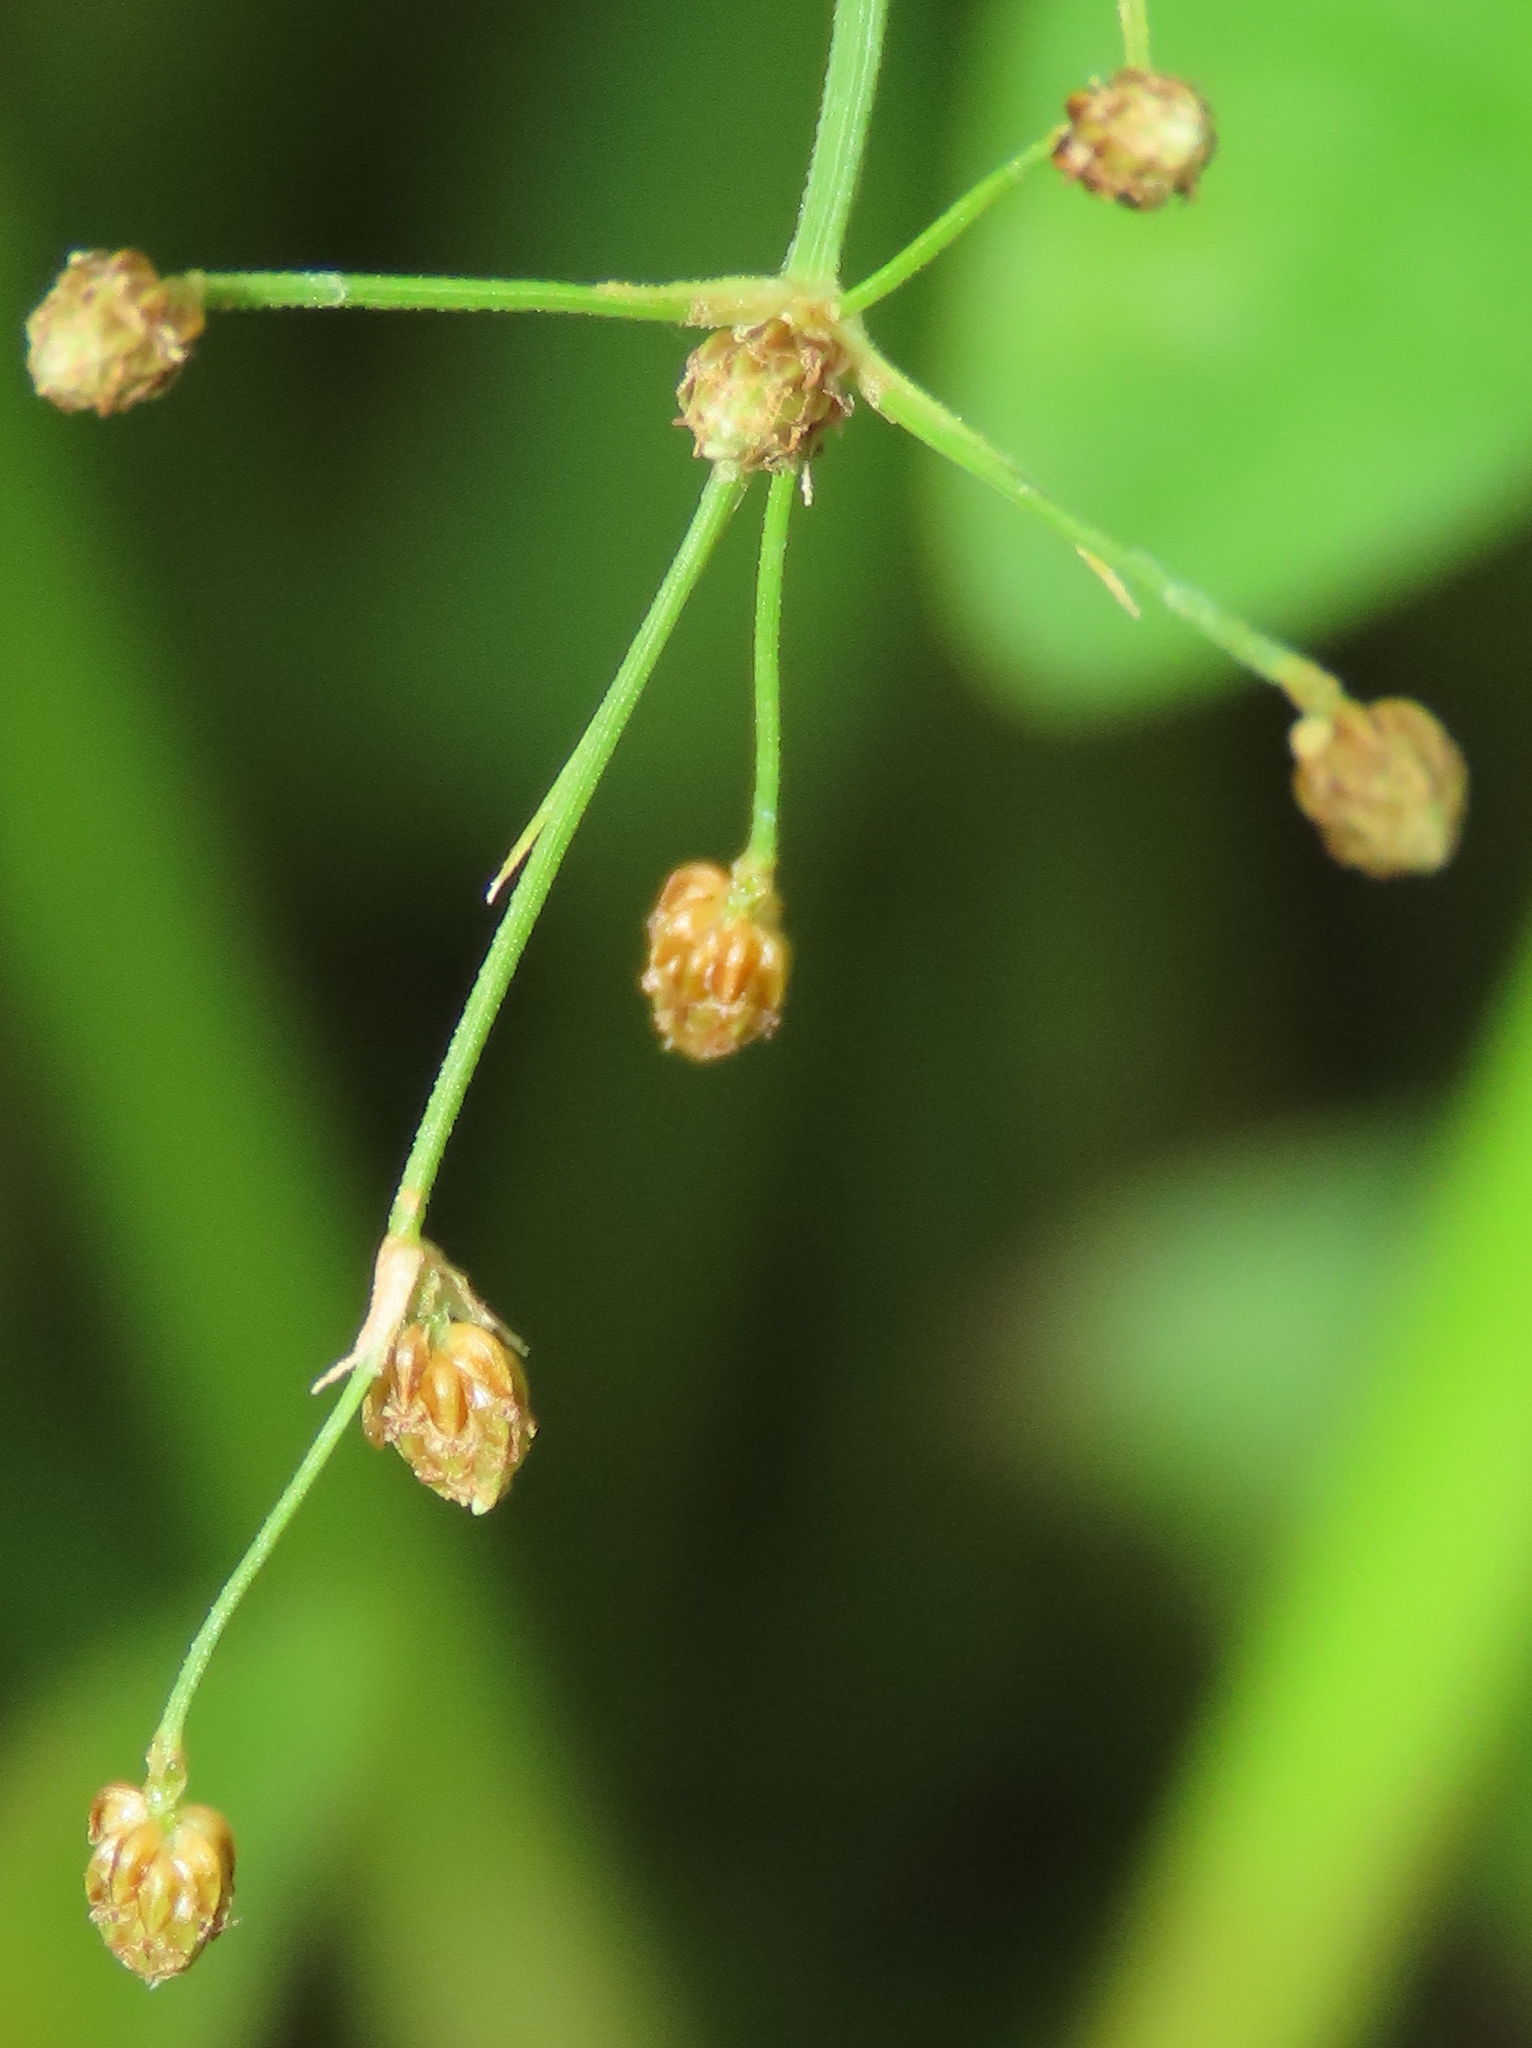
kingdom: Plantae
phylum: Tracheophyta
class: Liliopsida
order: Poales
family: Cyperaceae
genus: Fimbristylis
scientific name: Fimbristylis littoralis
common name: Fimbry
